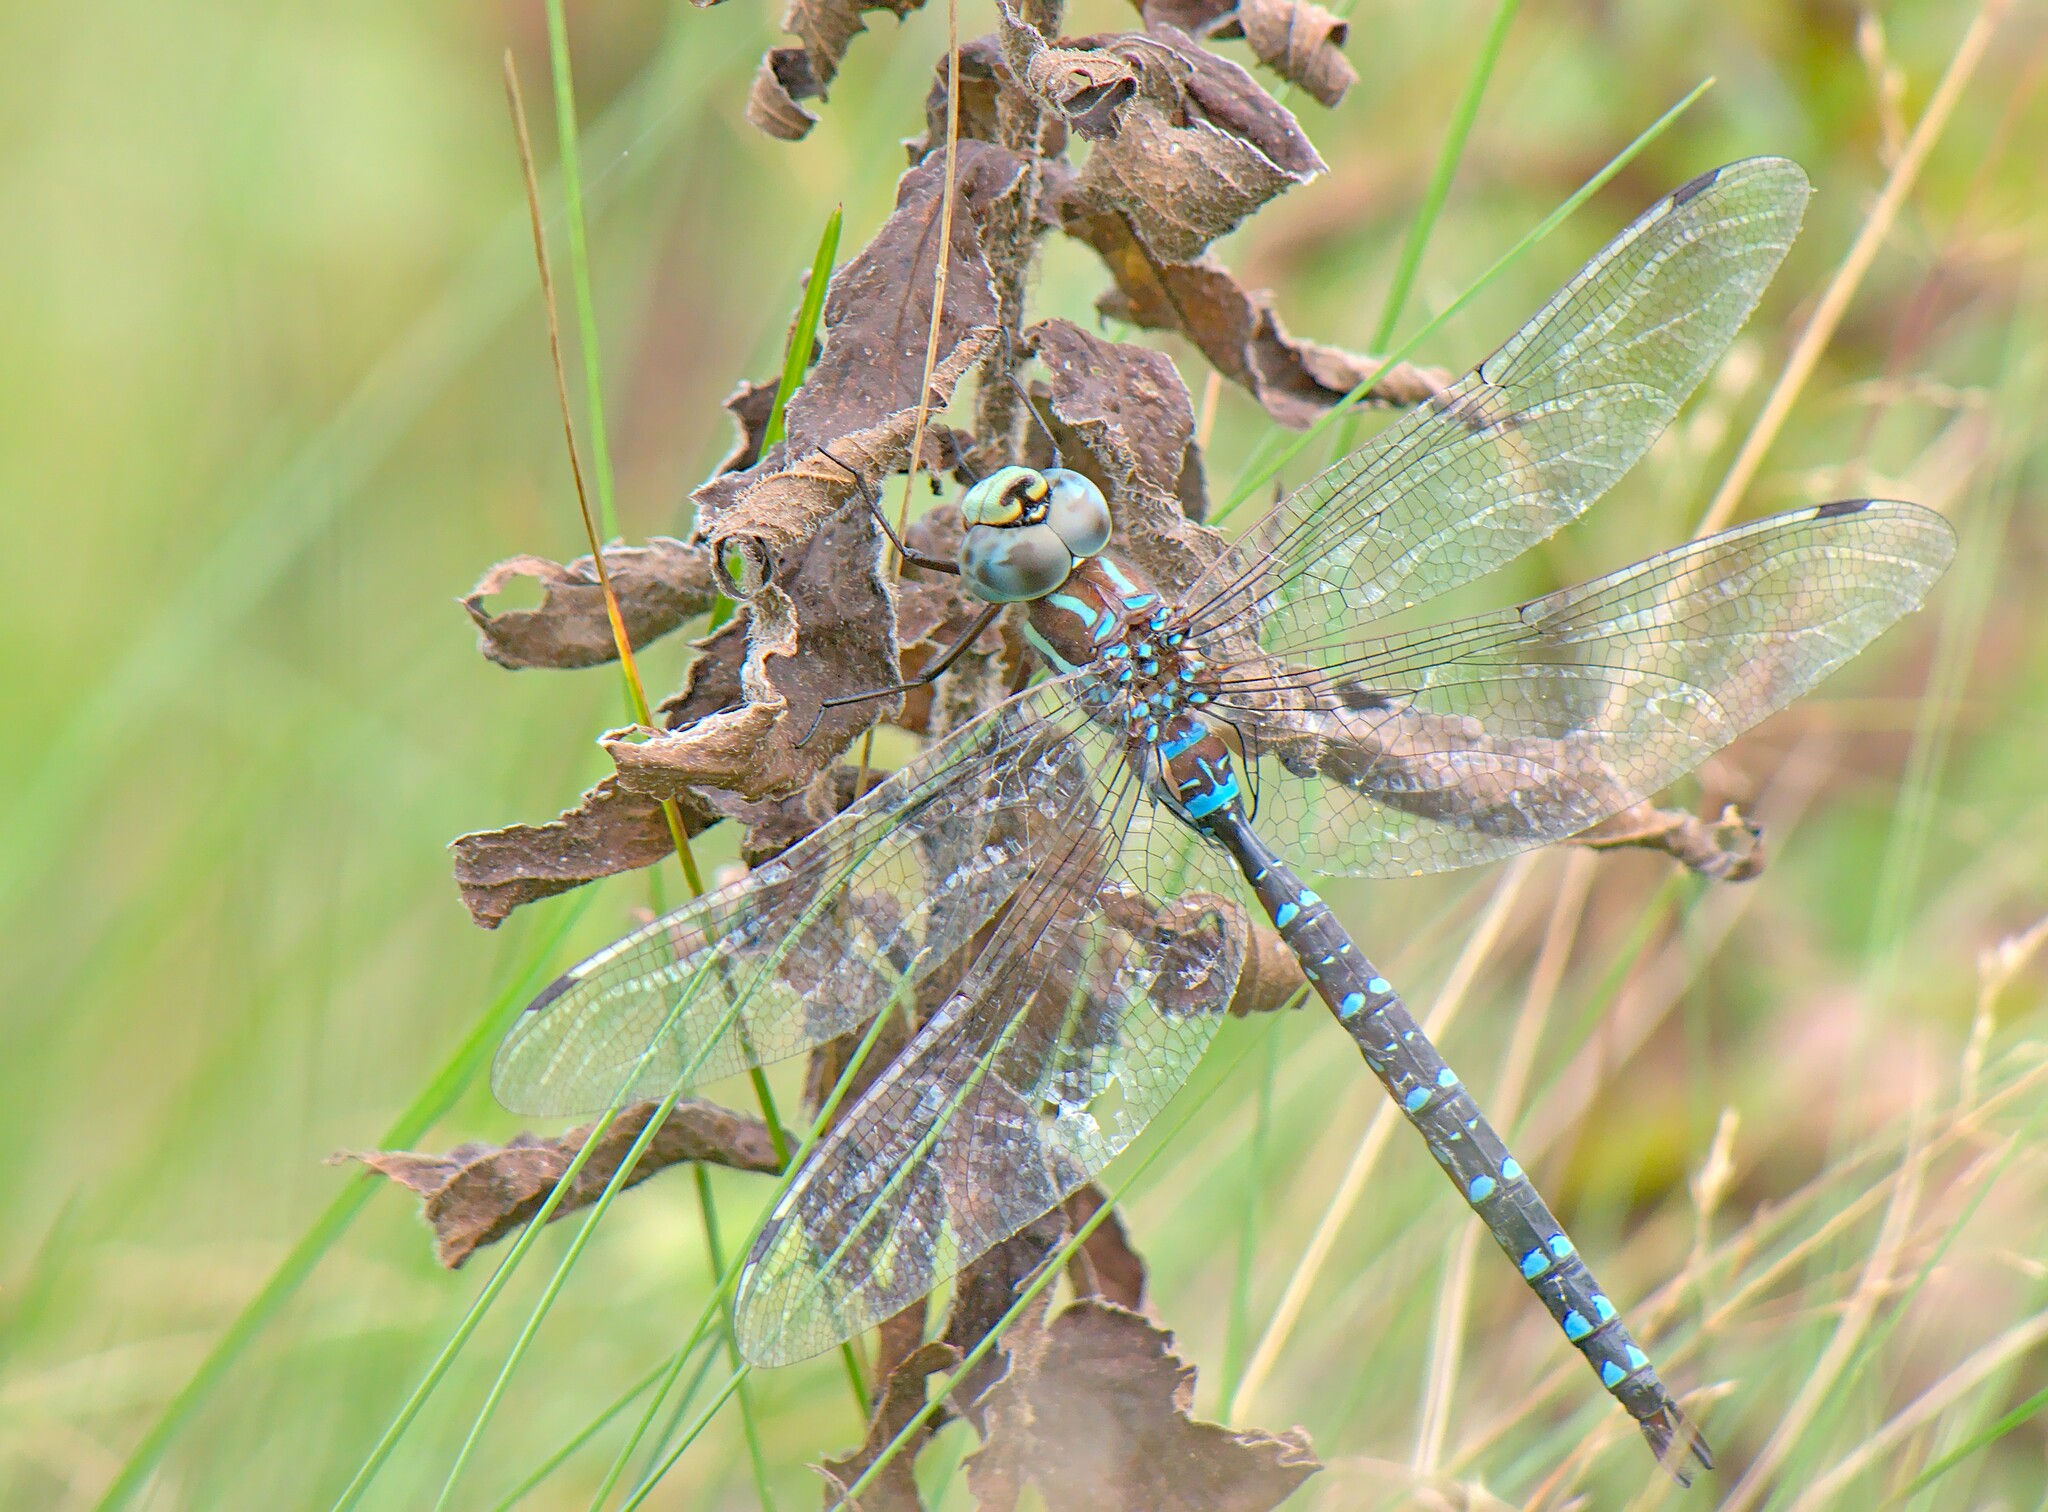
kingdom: Animalia
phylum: Arthropoda
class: Insecta
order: Odonata
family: Aeshnidae
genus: Aeshna
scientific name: Aeshna tuberculifera
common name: Aeschne à tubercules
